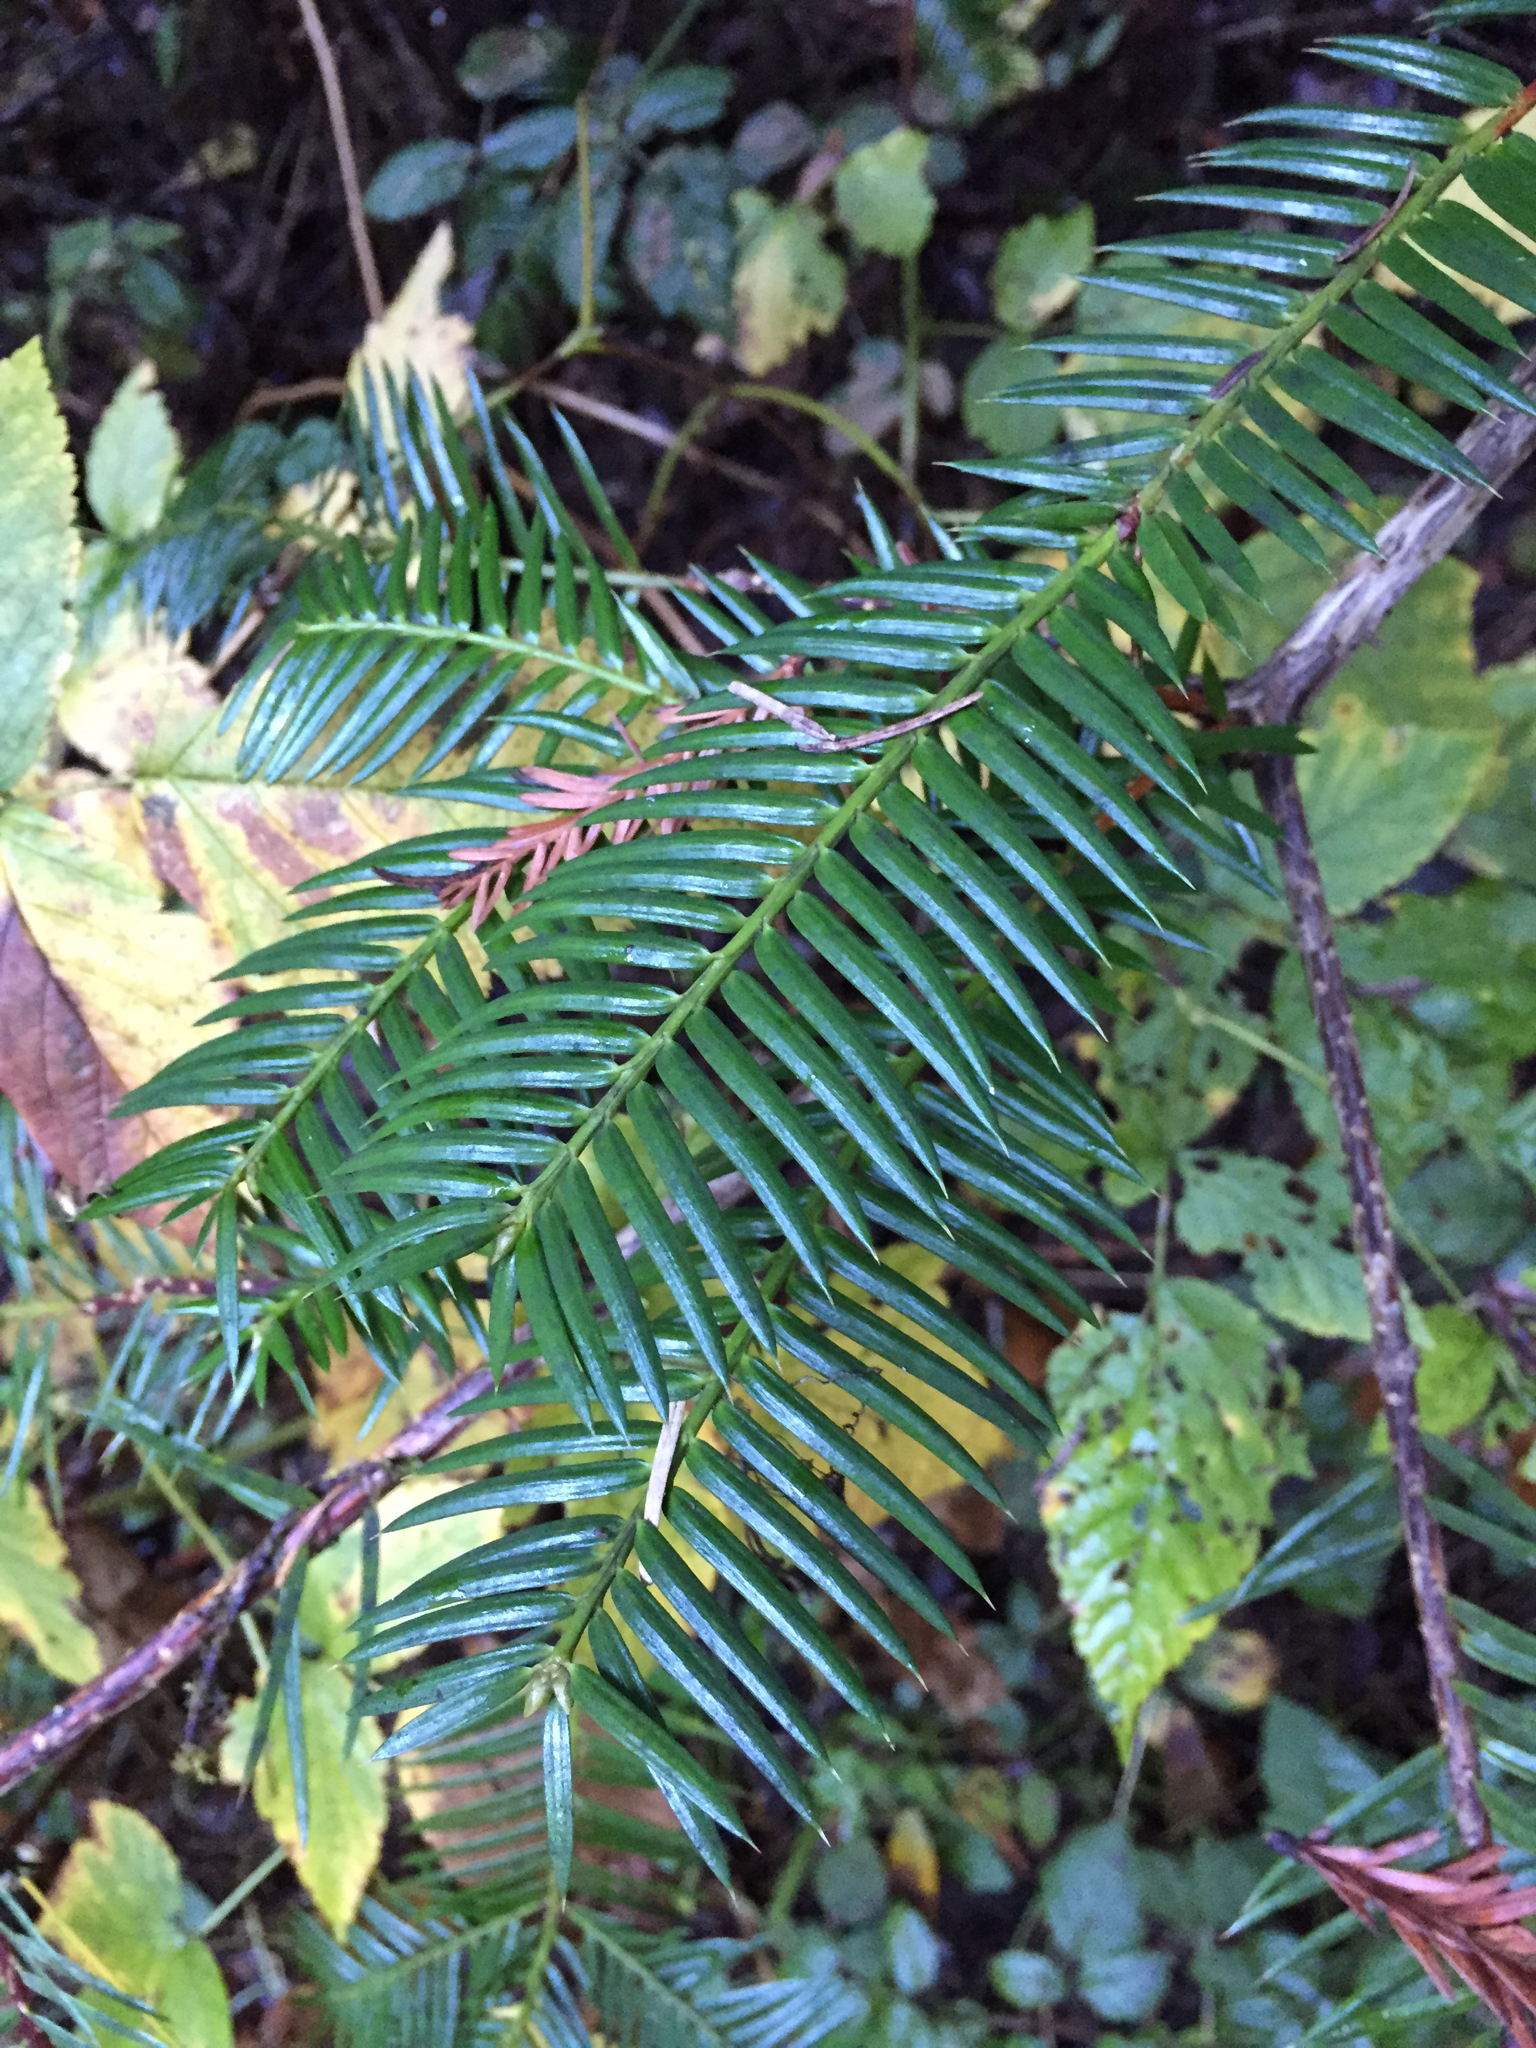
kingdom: Plantae
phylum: Tracheophyta
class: Pinopsida
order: Pinales
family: Taxaceae
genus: Torreya
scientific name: Torreya californica
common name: California torreya
